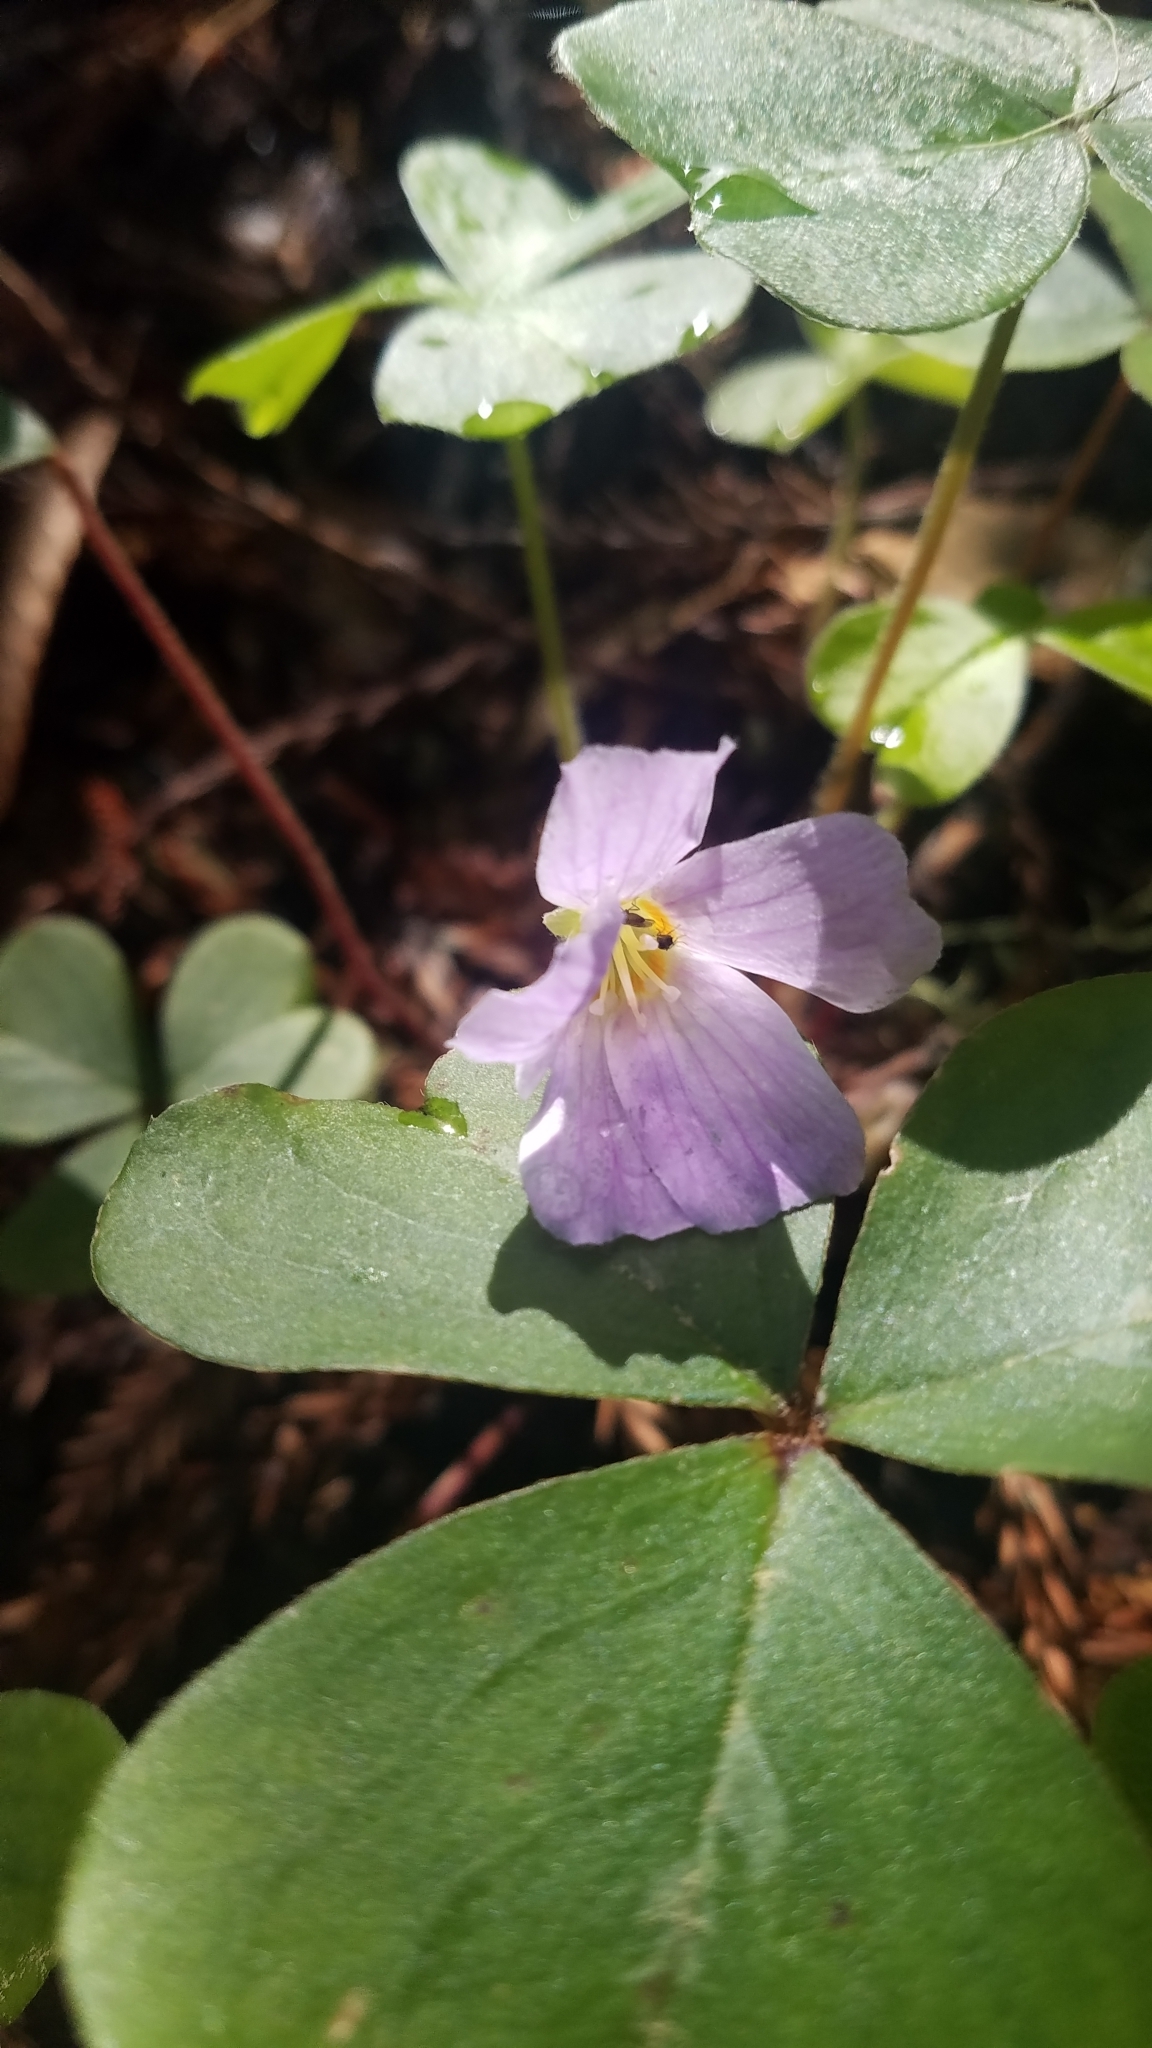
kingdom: Plantae
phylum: Tracheophyta
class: Magnoliopsida
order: Oxalidales
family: Oxalidaceae
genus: Oxalis
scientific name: Oxalis oregana
